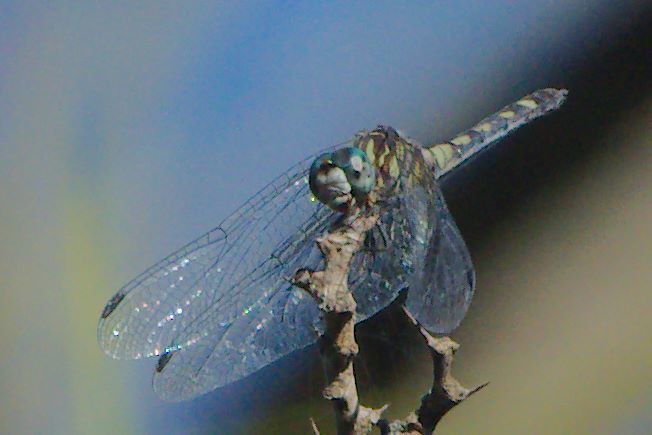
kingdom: Animalia
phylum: Arthropoda
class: Insecta
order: Odonata
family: Libellulidae
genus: Micrathyria
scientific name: Micrathyria hagenii
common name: Thornbush dasher
